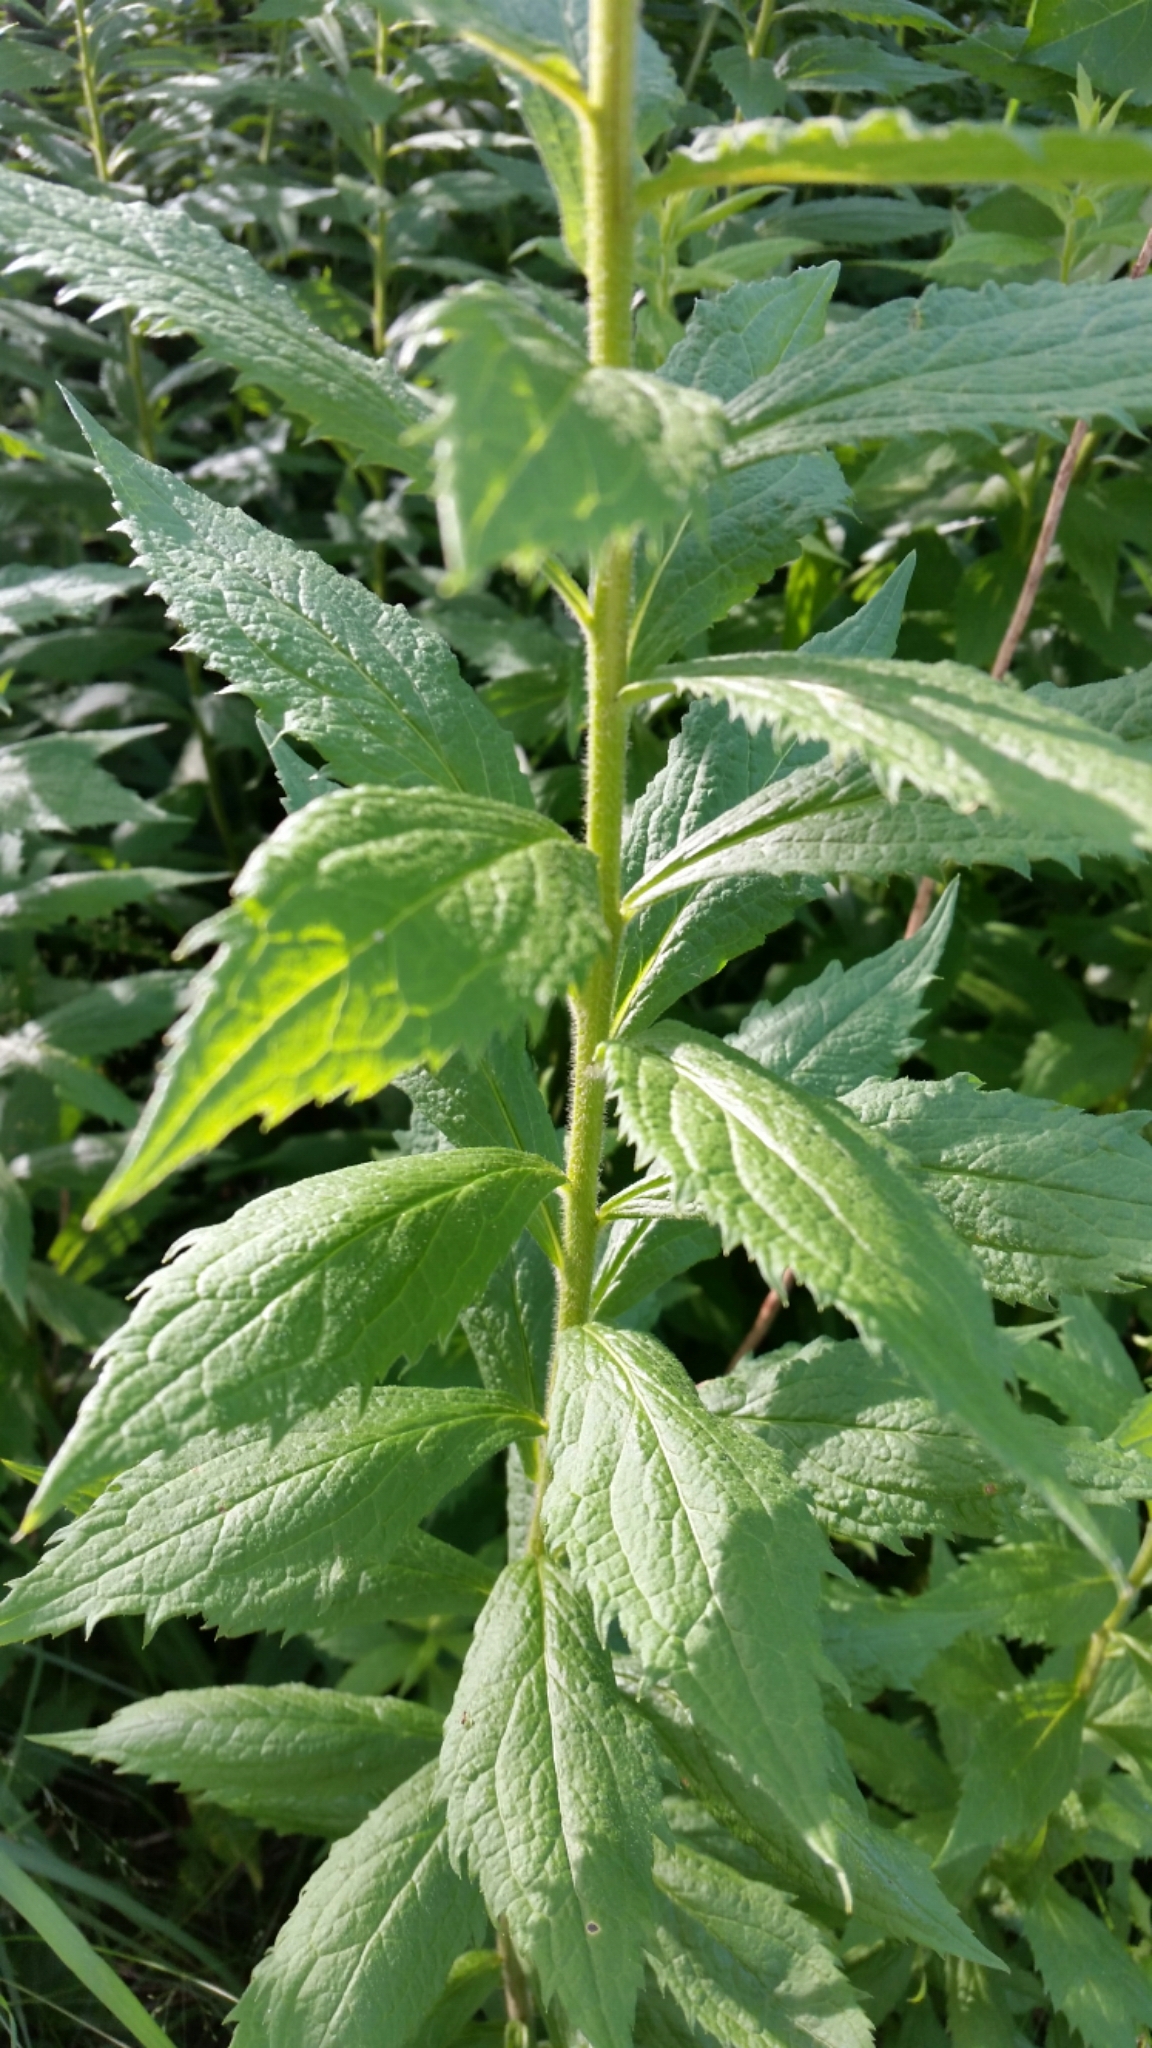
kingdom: Plantae
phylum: Tracheophyta
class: Magnoliopsida
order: Asterales
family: Asteraceae
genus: Solidago
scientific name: Solidago rugosa
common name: Rough-stemmed goldenrod
